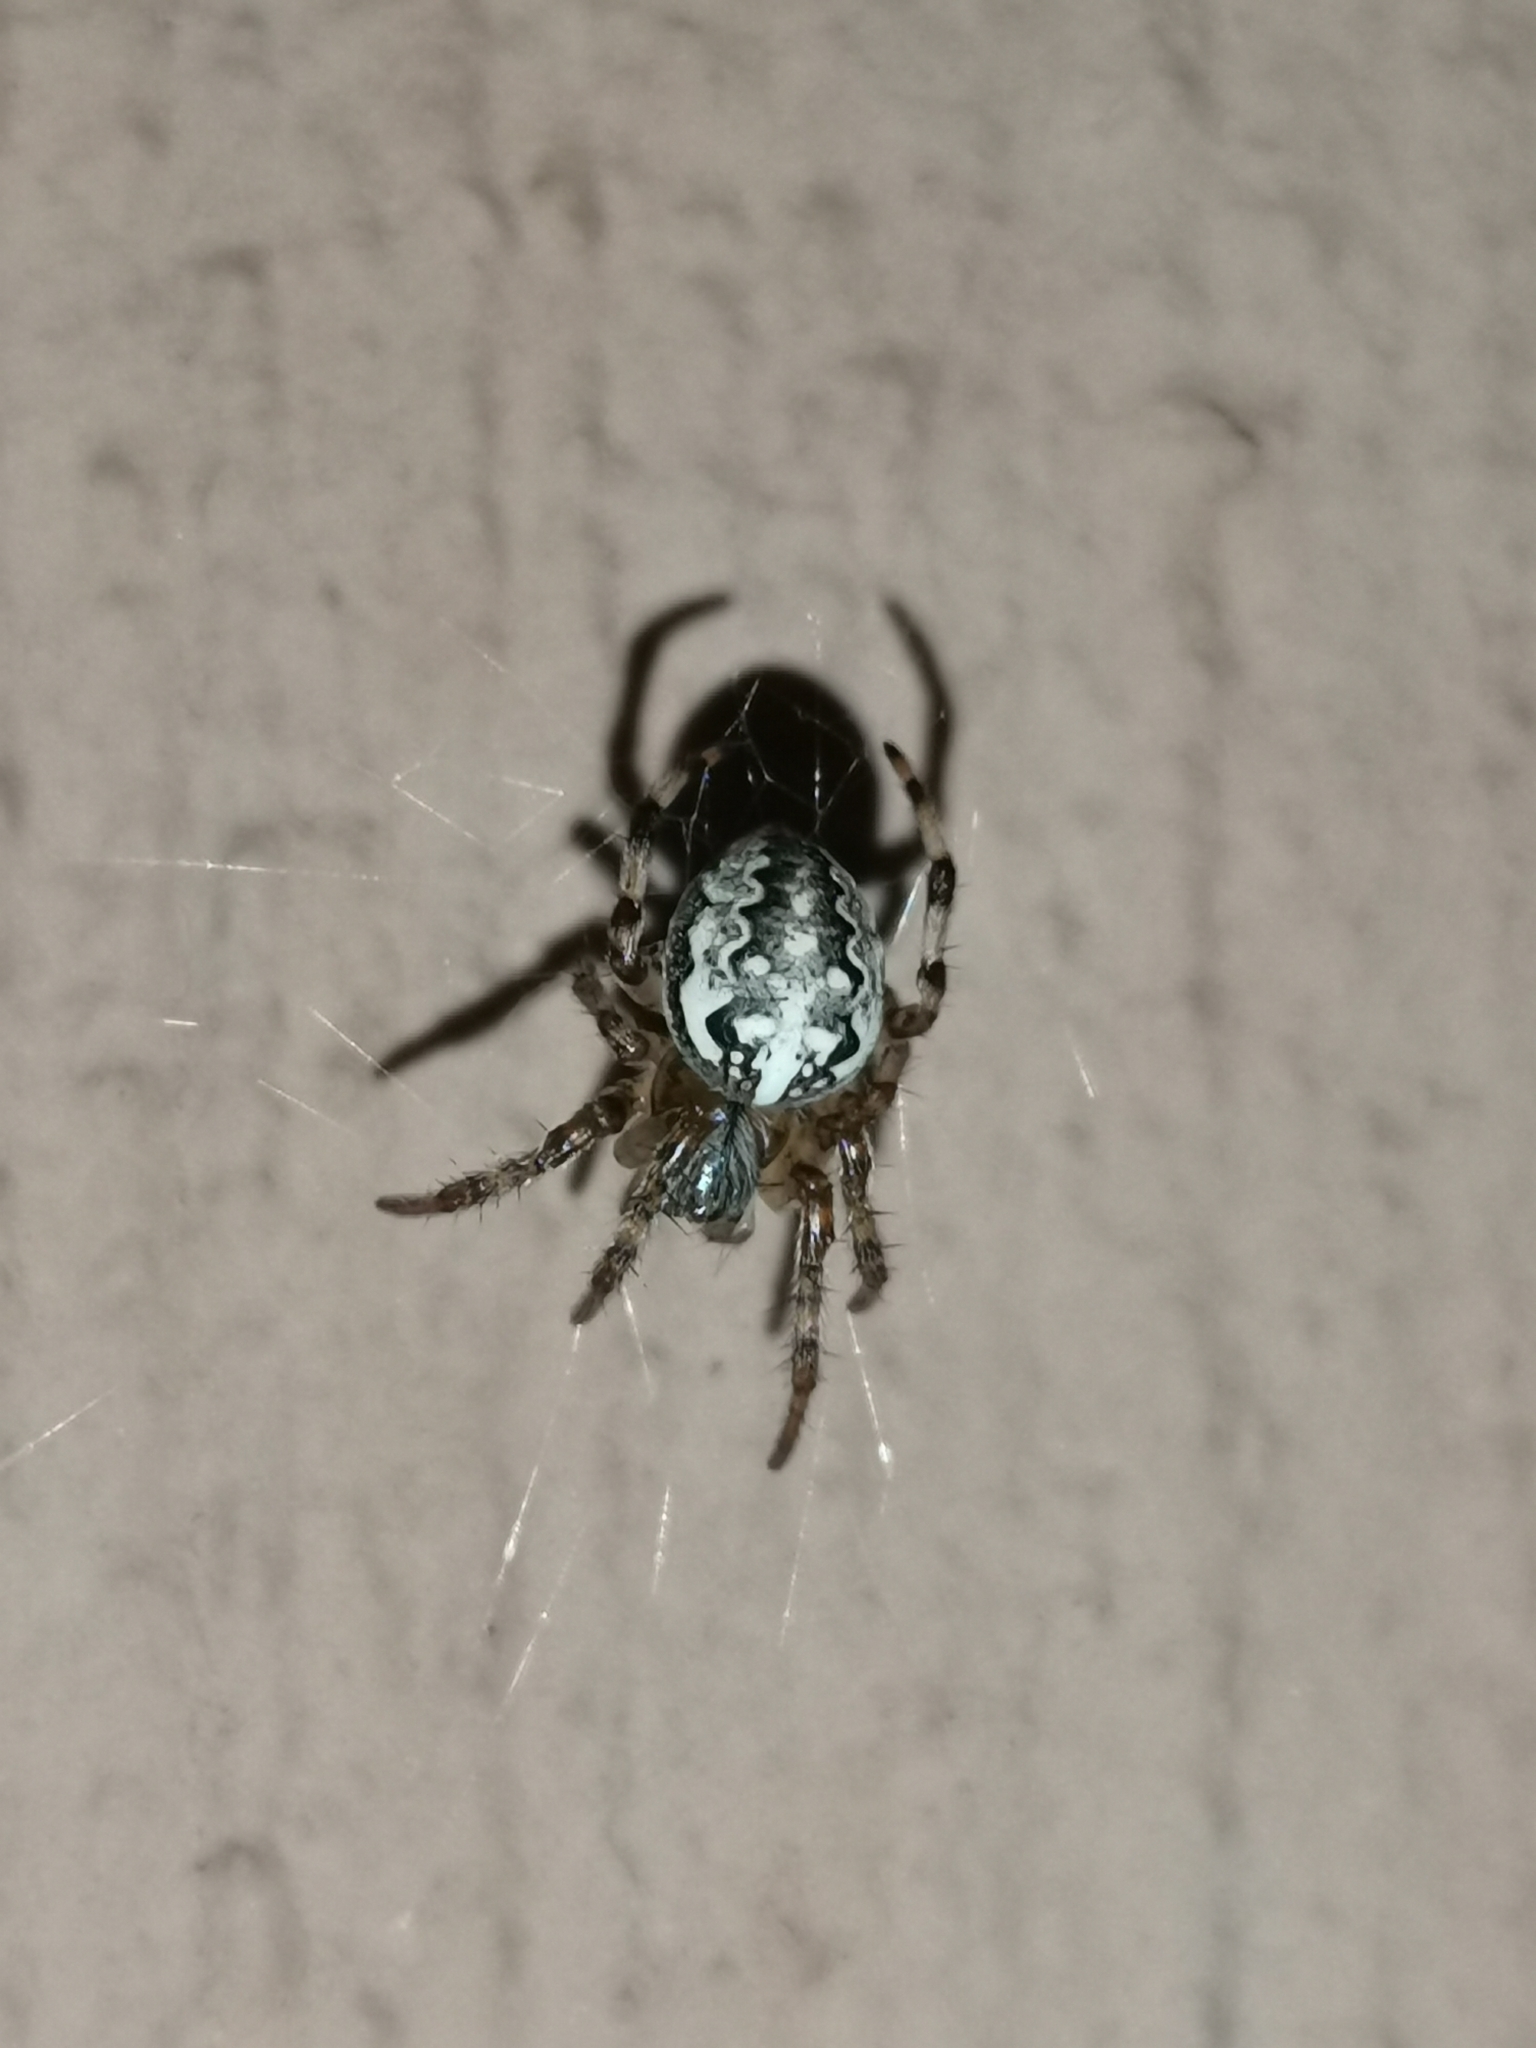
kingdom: Animalia
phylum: Arthropoda
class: Arachnida
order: Araneae
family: Araneidae
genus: Araneus
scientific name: Araneus marmoreus
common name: Marbled orbweaver
